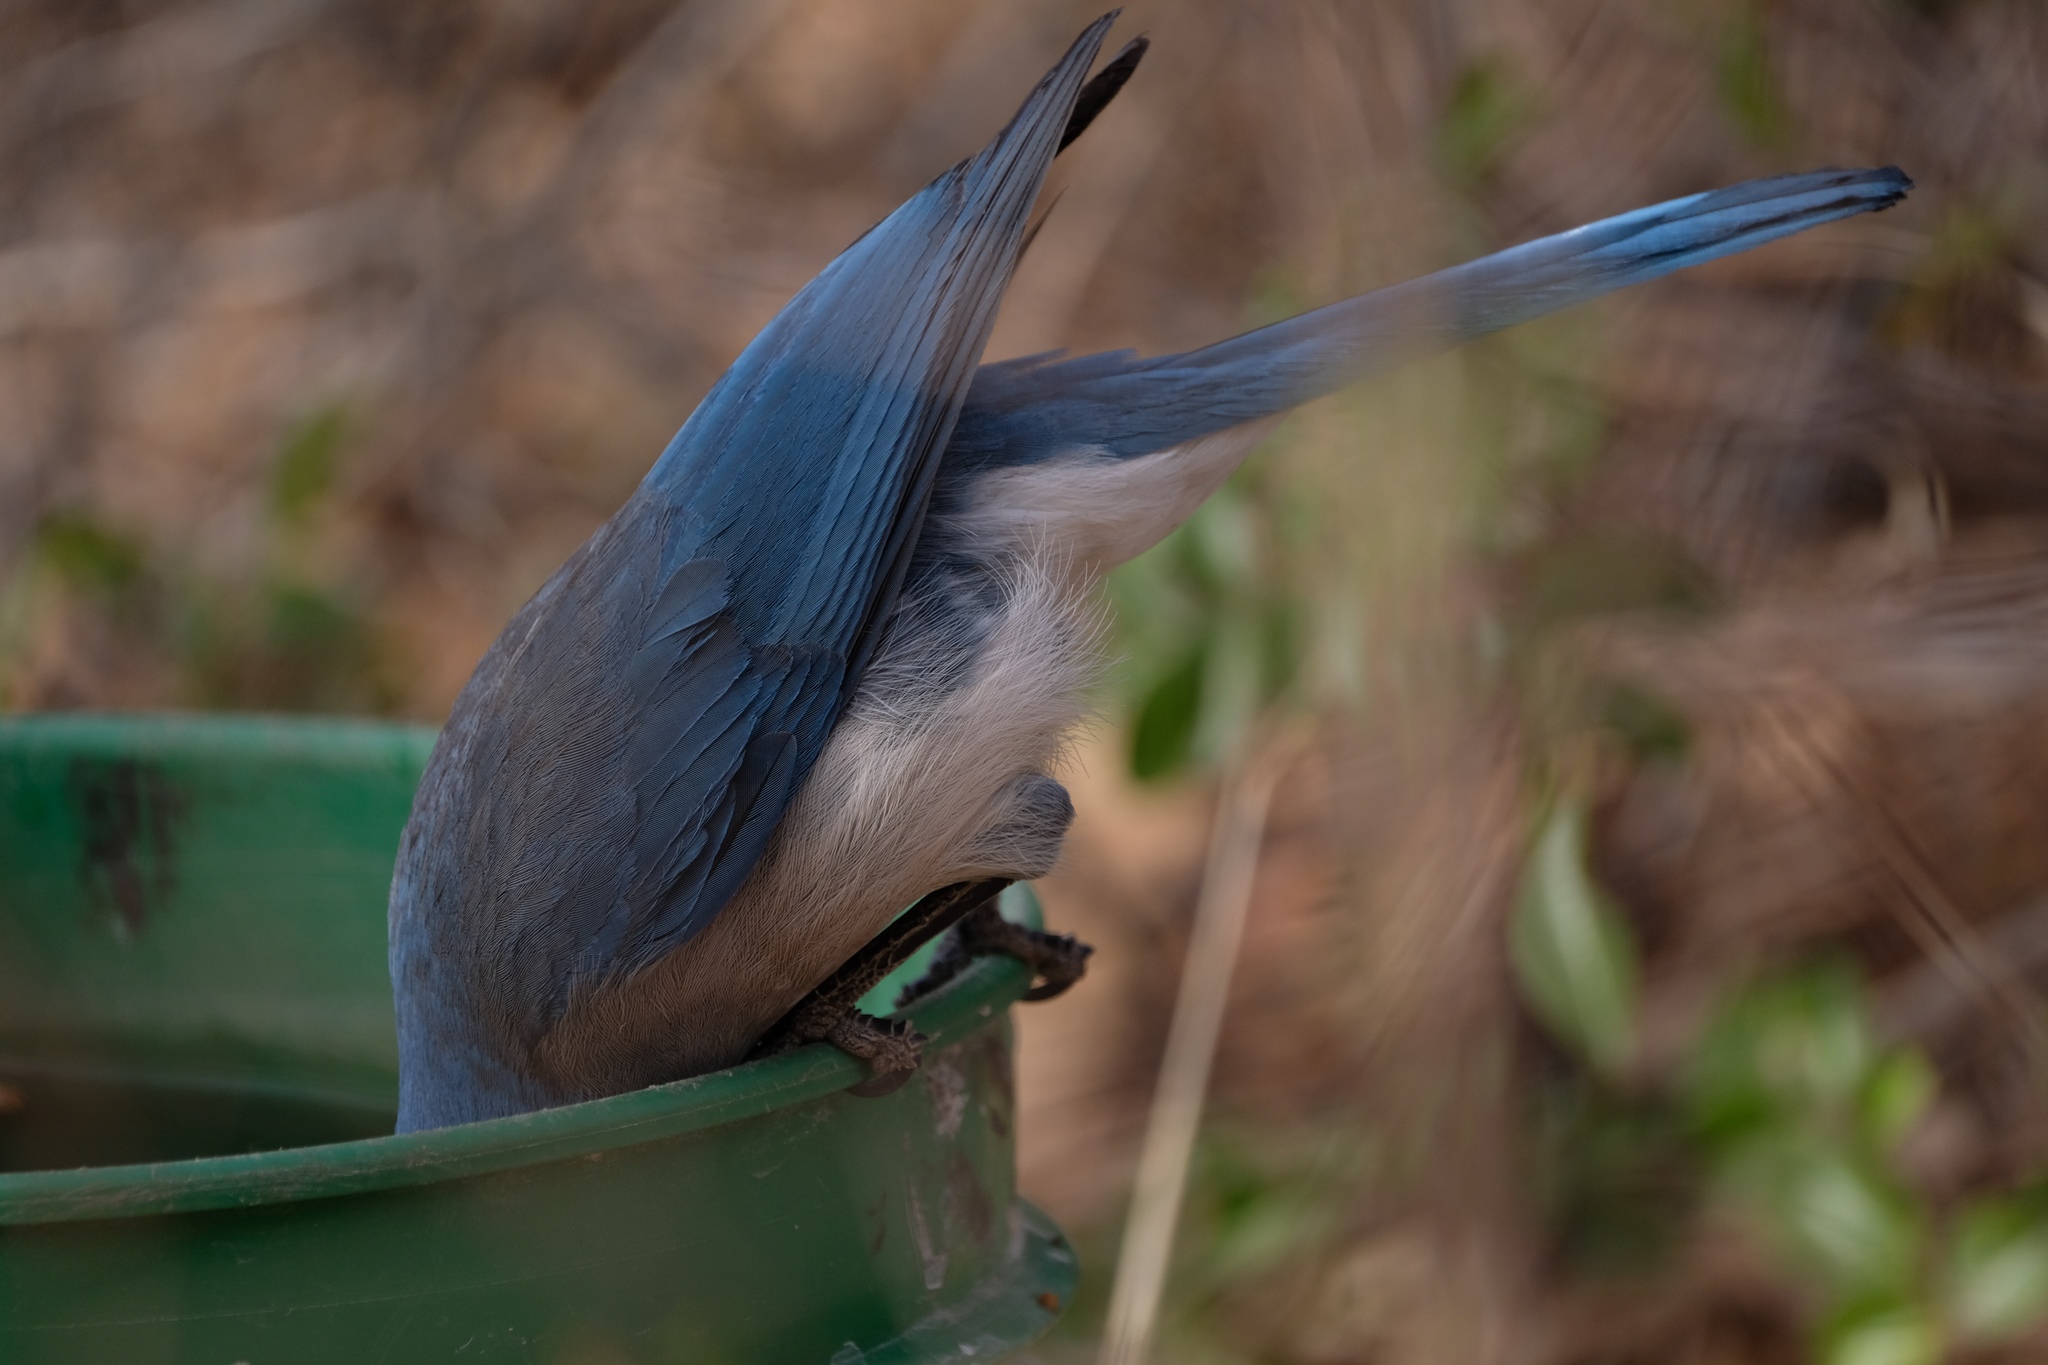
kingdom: Animalia
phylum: Chordata
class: Aves
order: Passeriformes
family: Corvidae
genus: Aphelocoma
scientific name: Aphelocoma wollweberi
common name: Mexican jay
